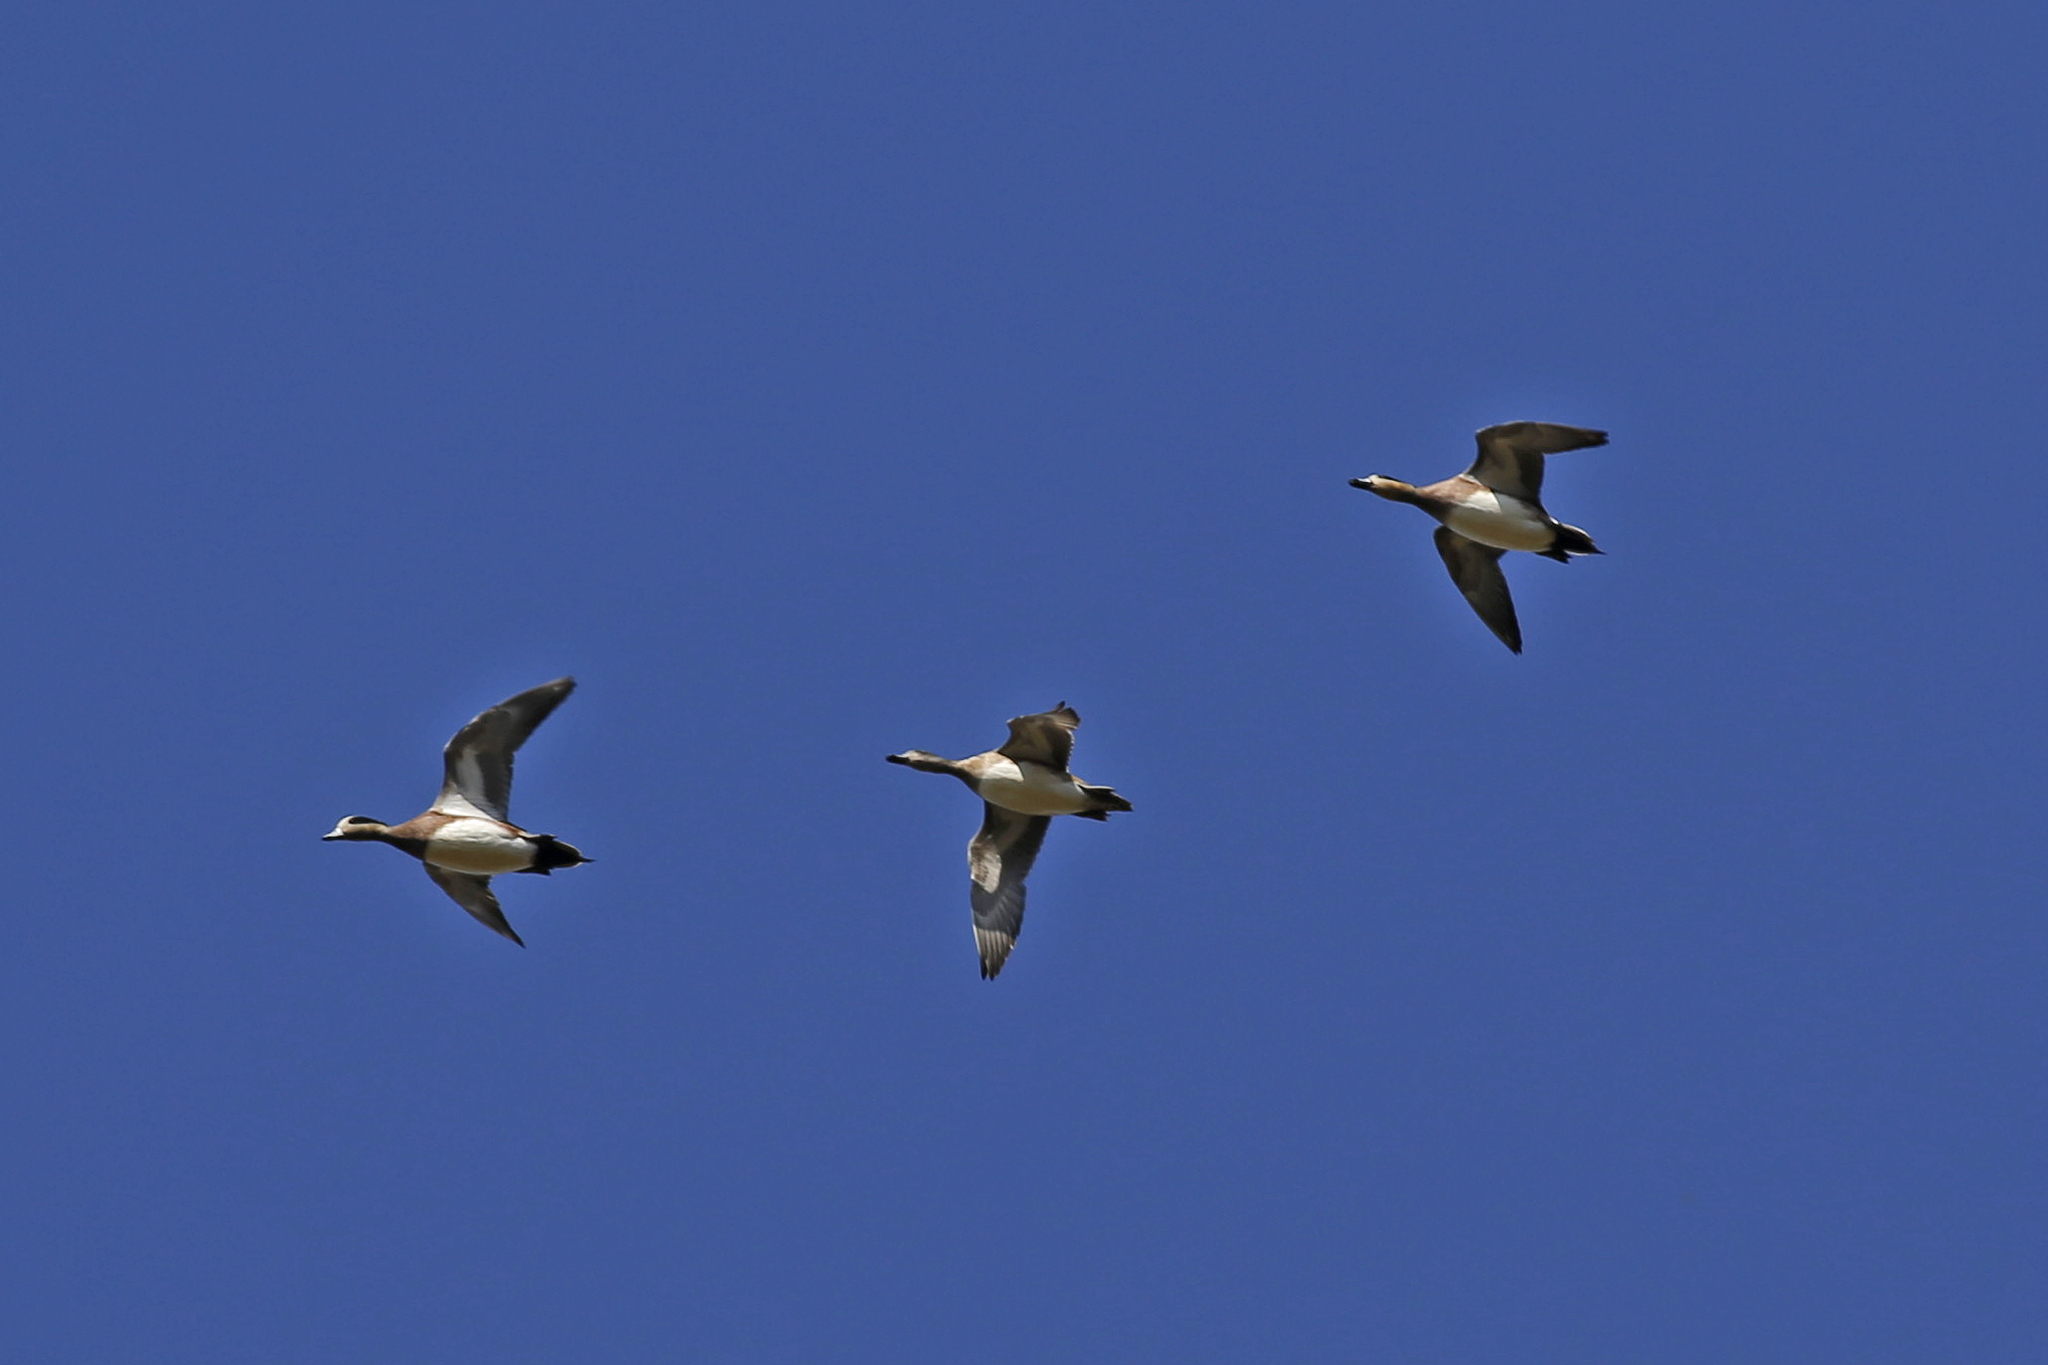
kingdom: Animalia
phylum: Chordata
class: Aves
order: Anseriformes
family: Anatidae
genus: Mareca
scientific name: Mareca americana
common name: American wigeon
